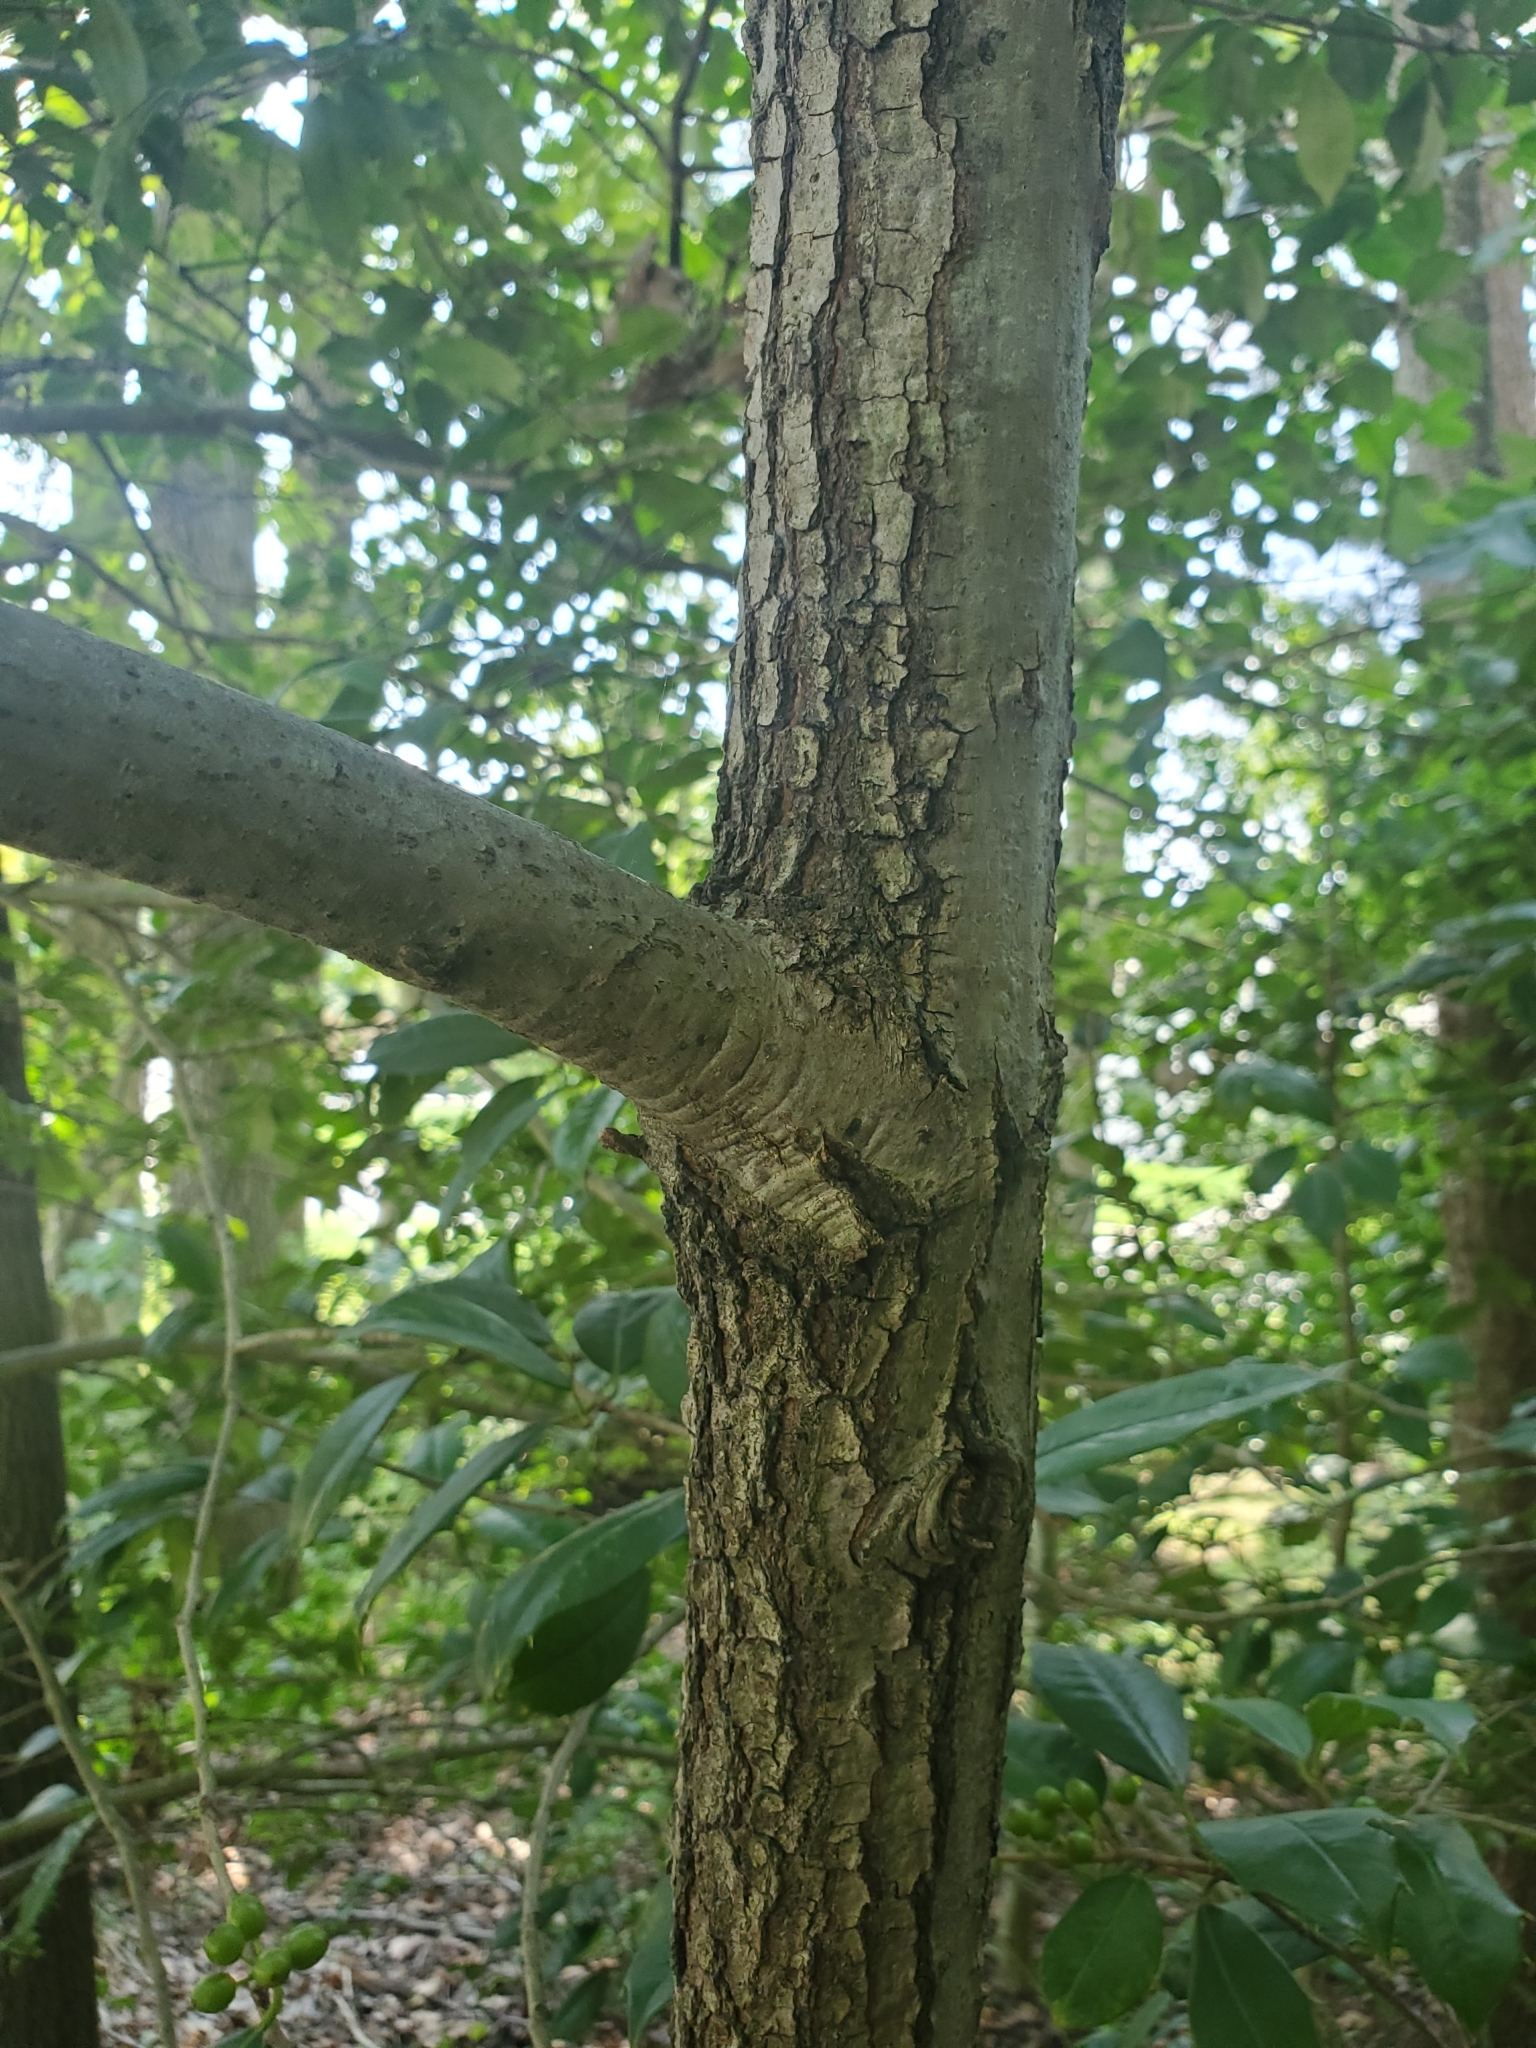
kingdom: Plantae
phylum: Tracheophyta
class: Magnoliopsida
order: Fagales
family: Fagaceae
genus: Quercus
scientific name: Quercus velutina
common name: Black oak
